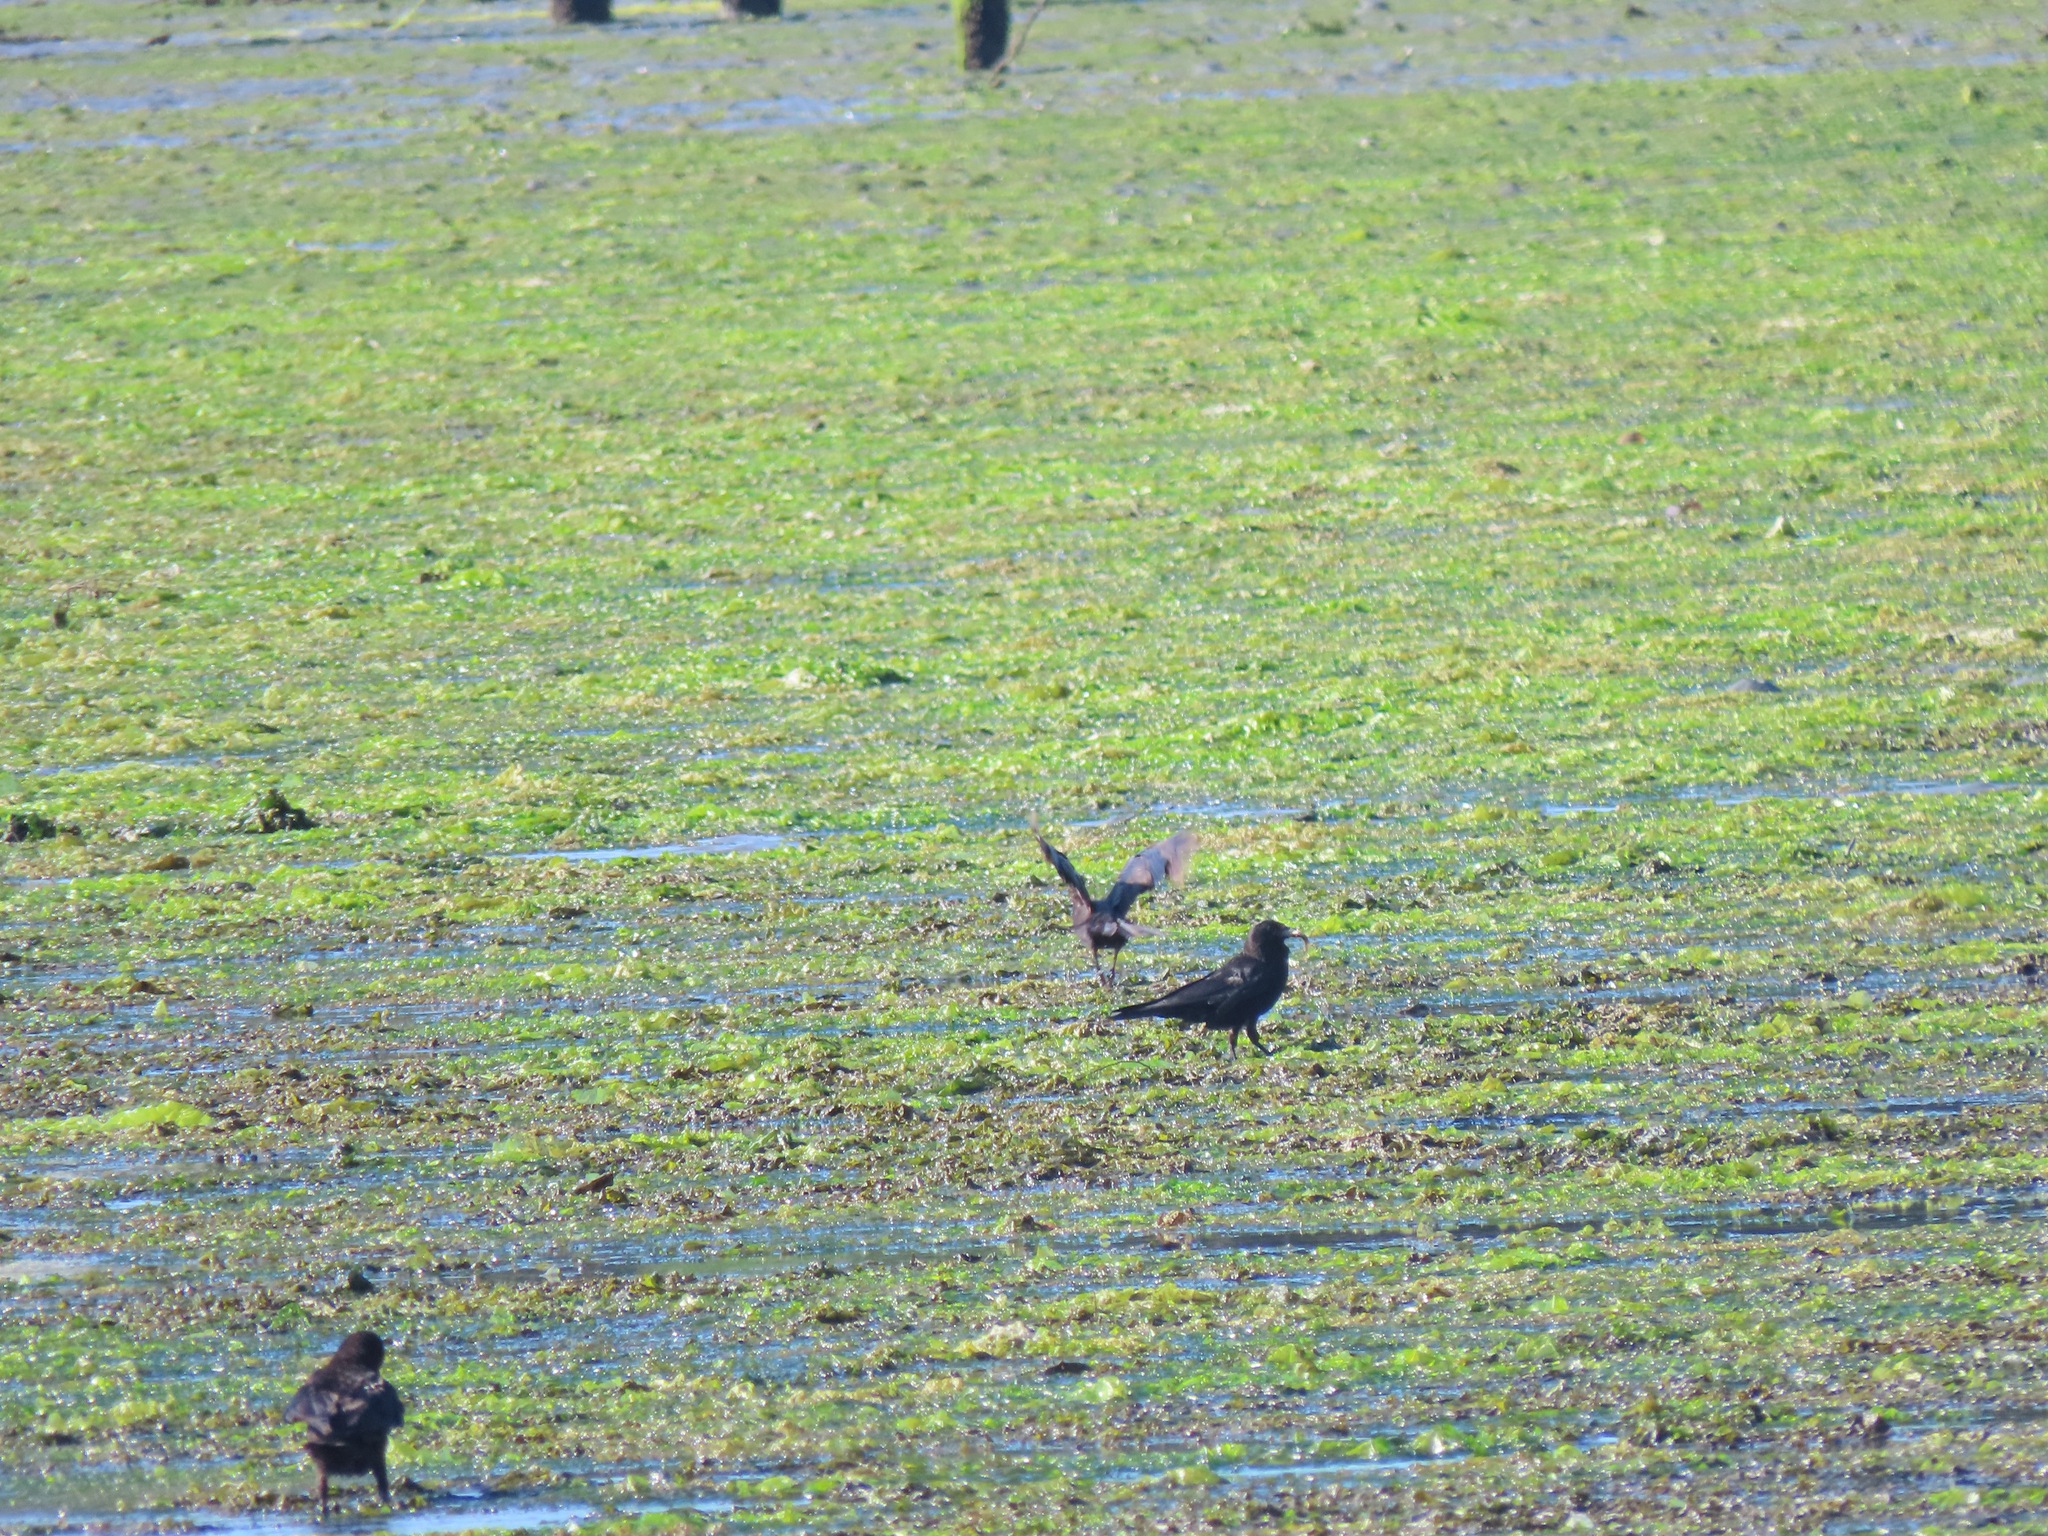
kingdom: Animalia
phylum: Chordata
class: Aves
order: Passeriformes
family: Corvidae
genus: Corvus
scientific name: Corvus brachyrhynchos
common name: American crow
